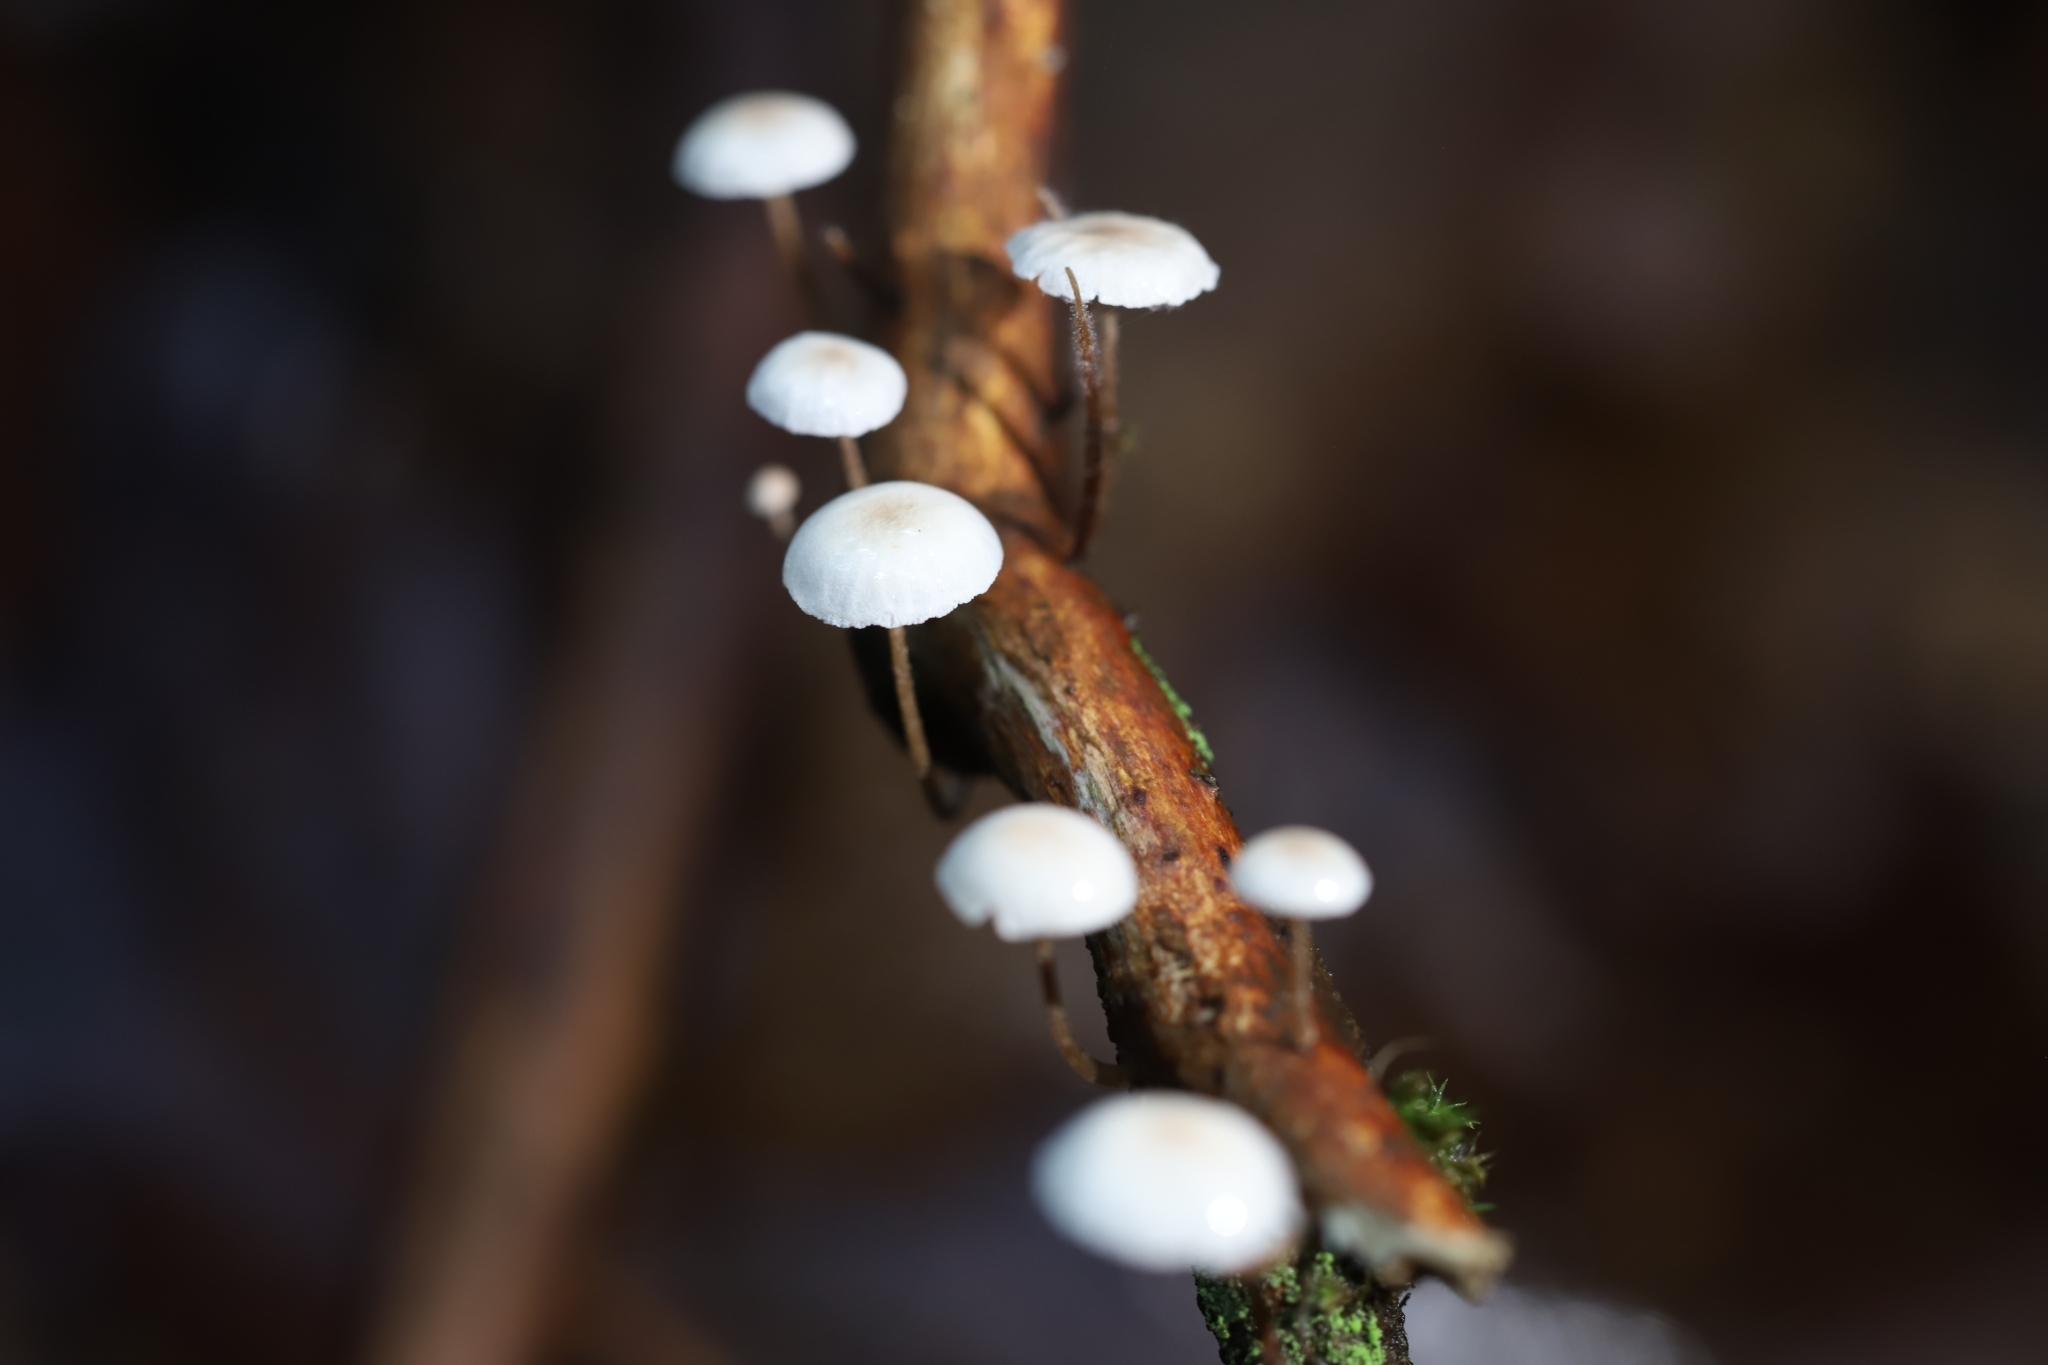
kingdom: Fungi
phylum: Basidiomycota
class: Agaricomycetes
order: Agaricales
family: Omphalotaceae
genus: Mycetinis
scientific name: Mycetinis opacus
